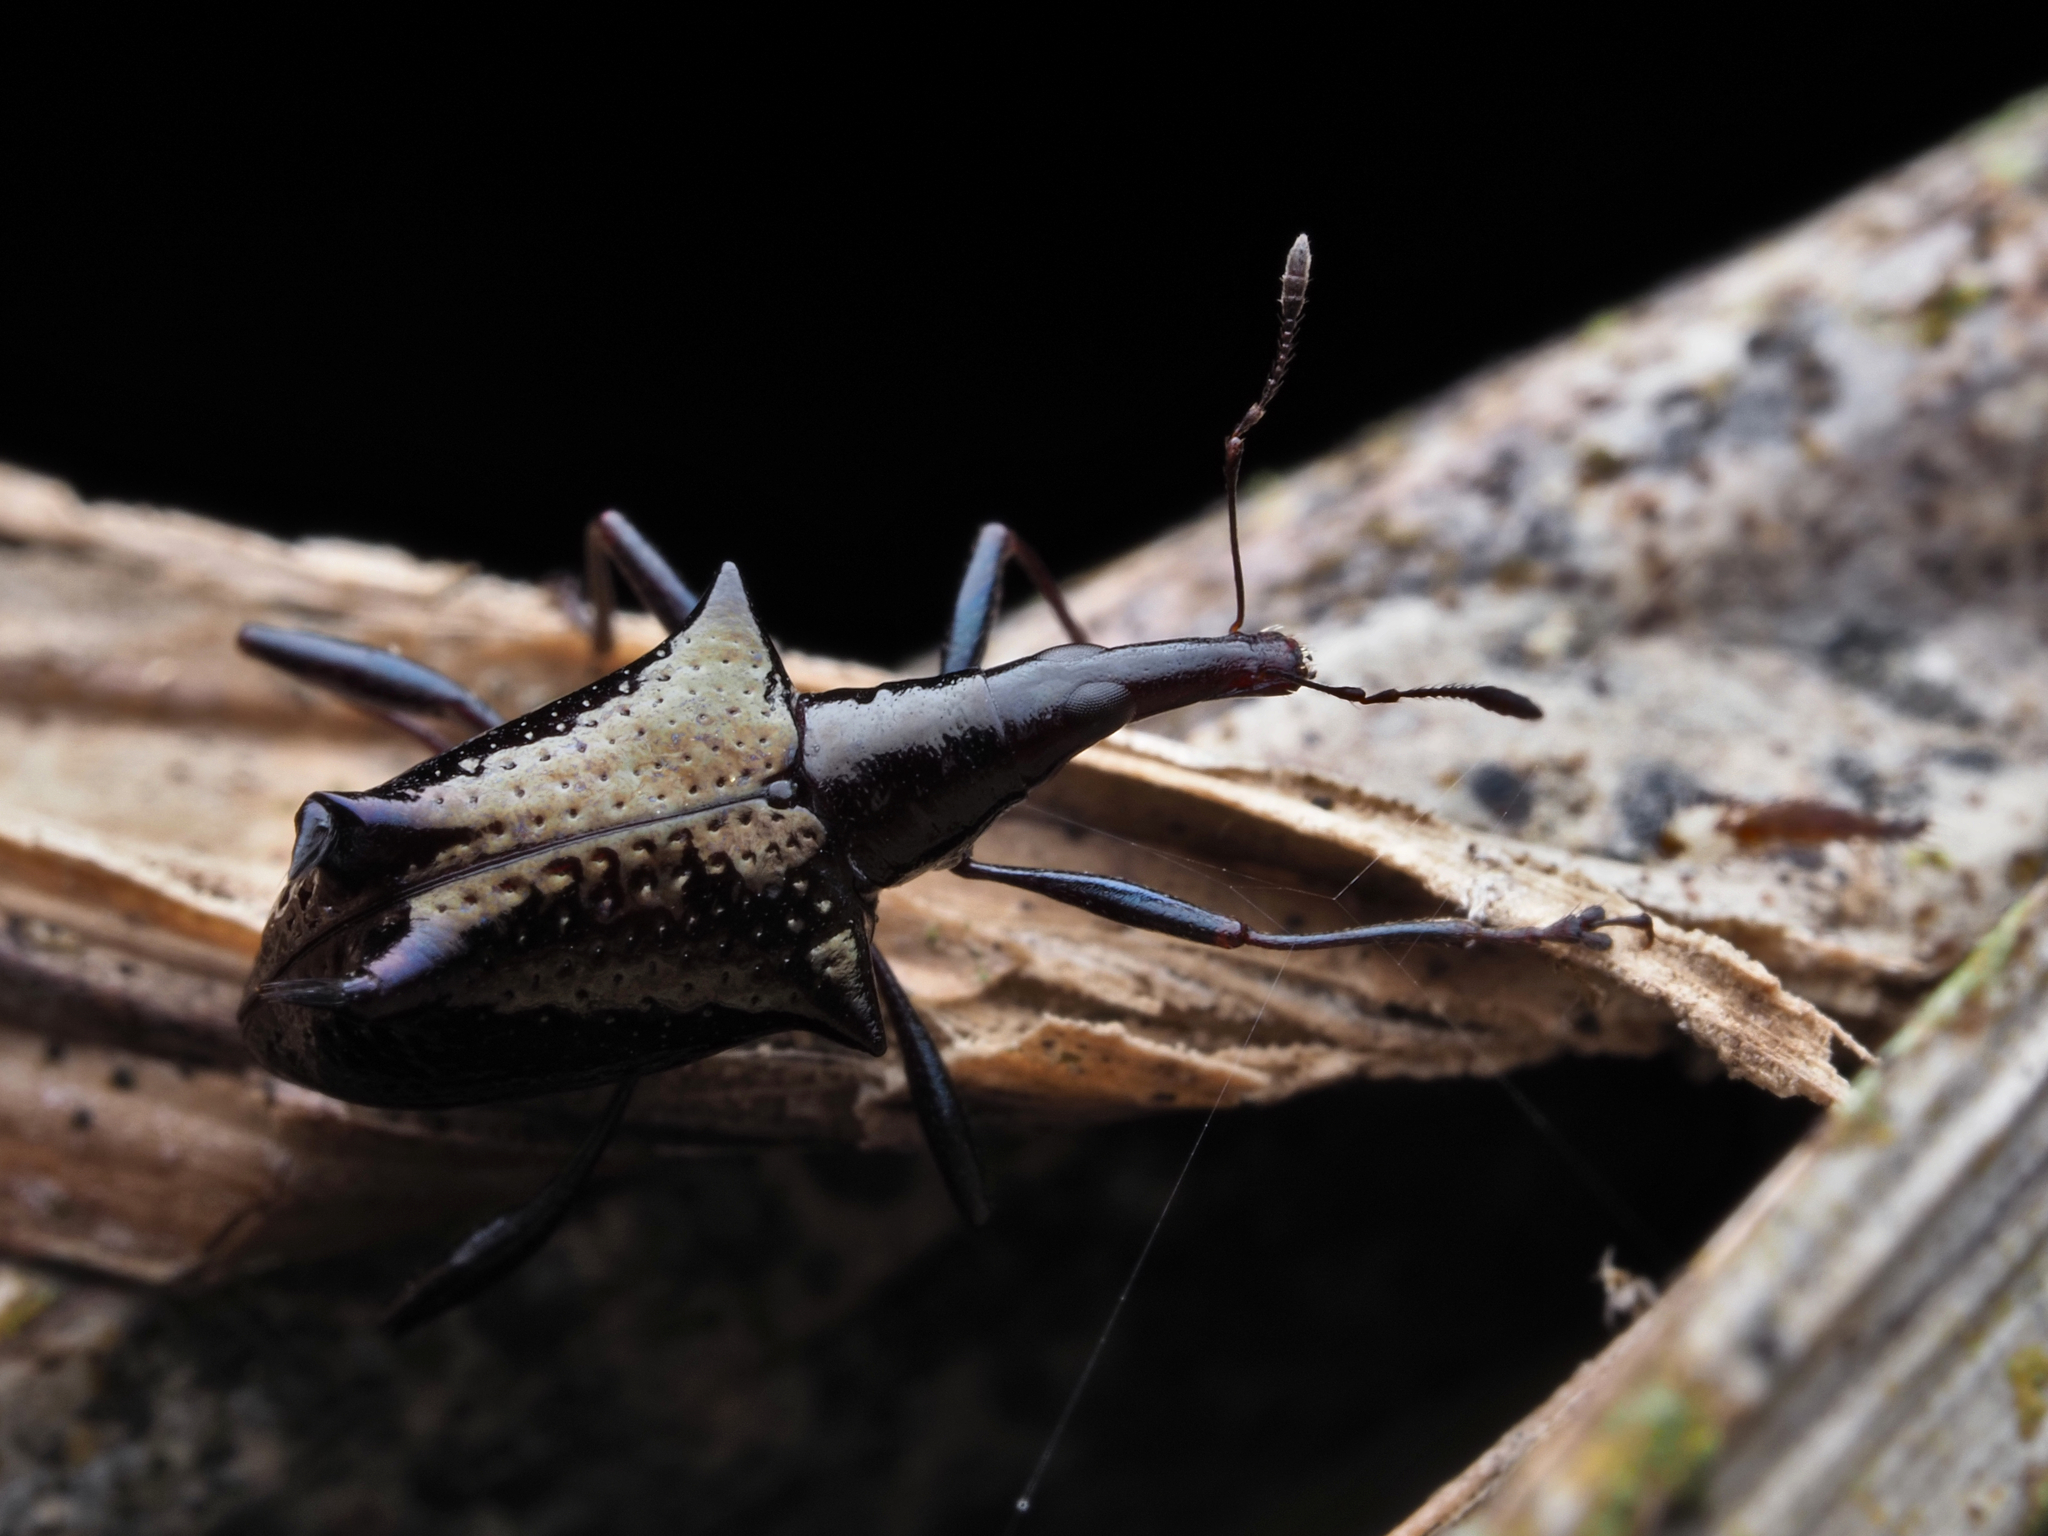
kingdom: Animalia
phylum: Arthropoda
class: Insecta
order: Coleoptera
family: Curculionidae
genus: Scolopterus
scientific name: Scolopterus aequus
